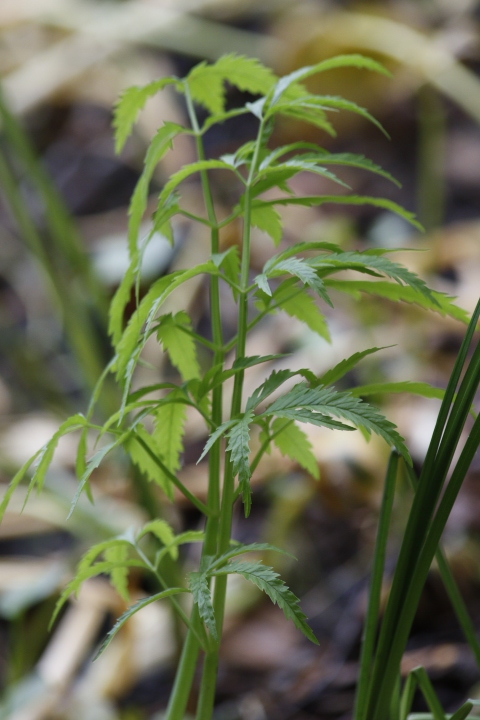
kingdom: Plantae
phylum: Tracheophyta
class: Magnoliopsida
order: Apiales
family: Apiaceae
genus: Cicuta
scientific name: Cicuta virosa
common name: Cowbane
